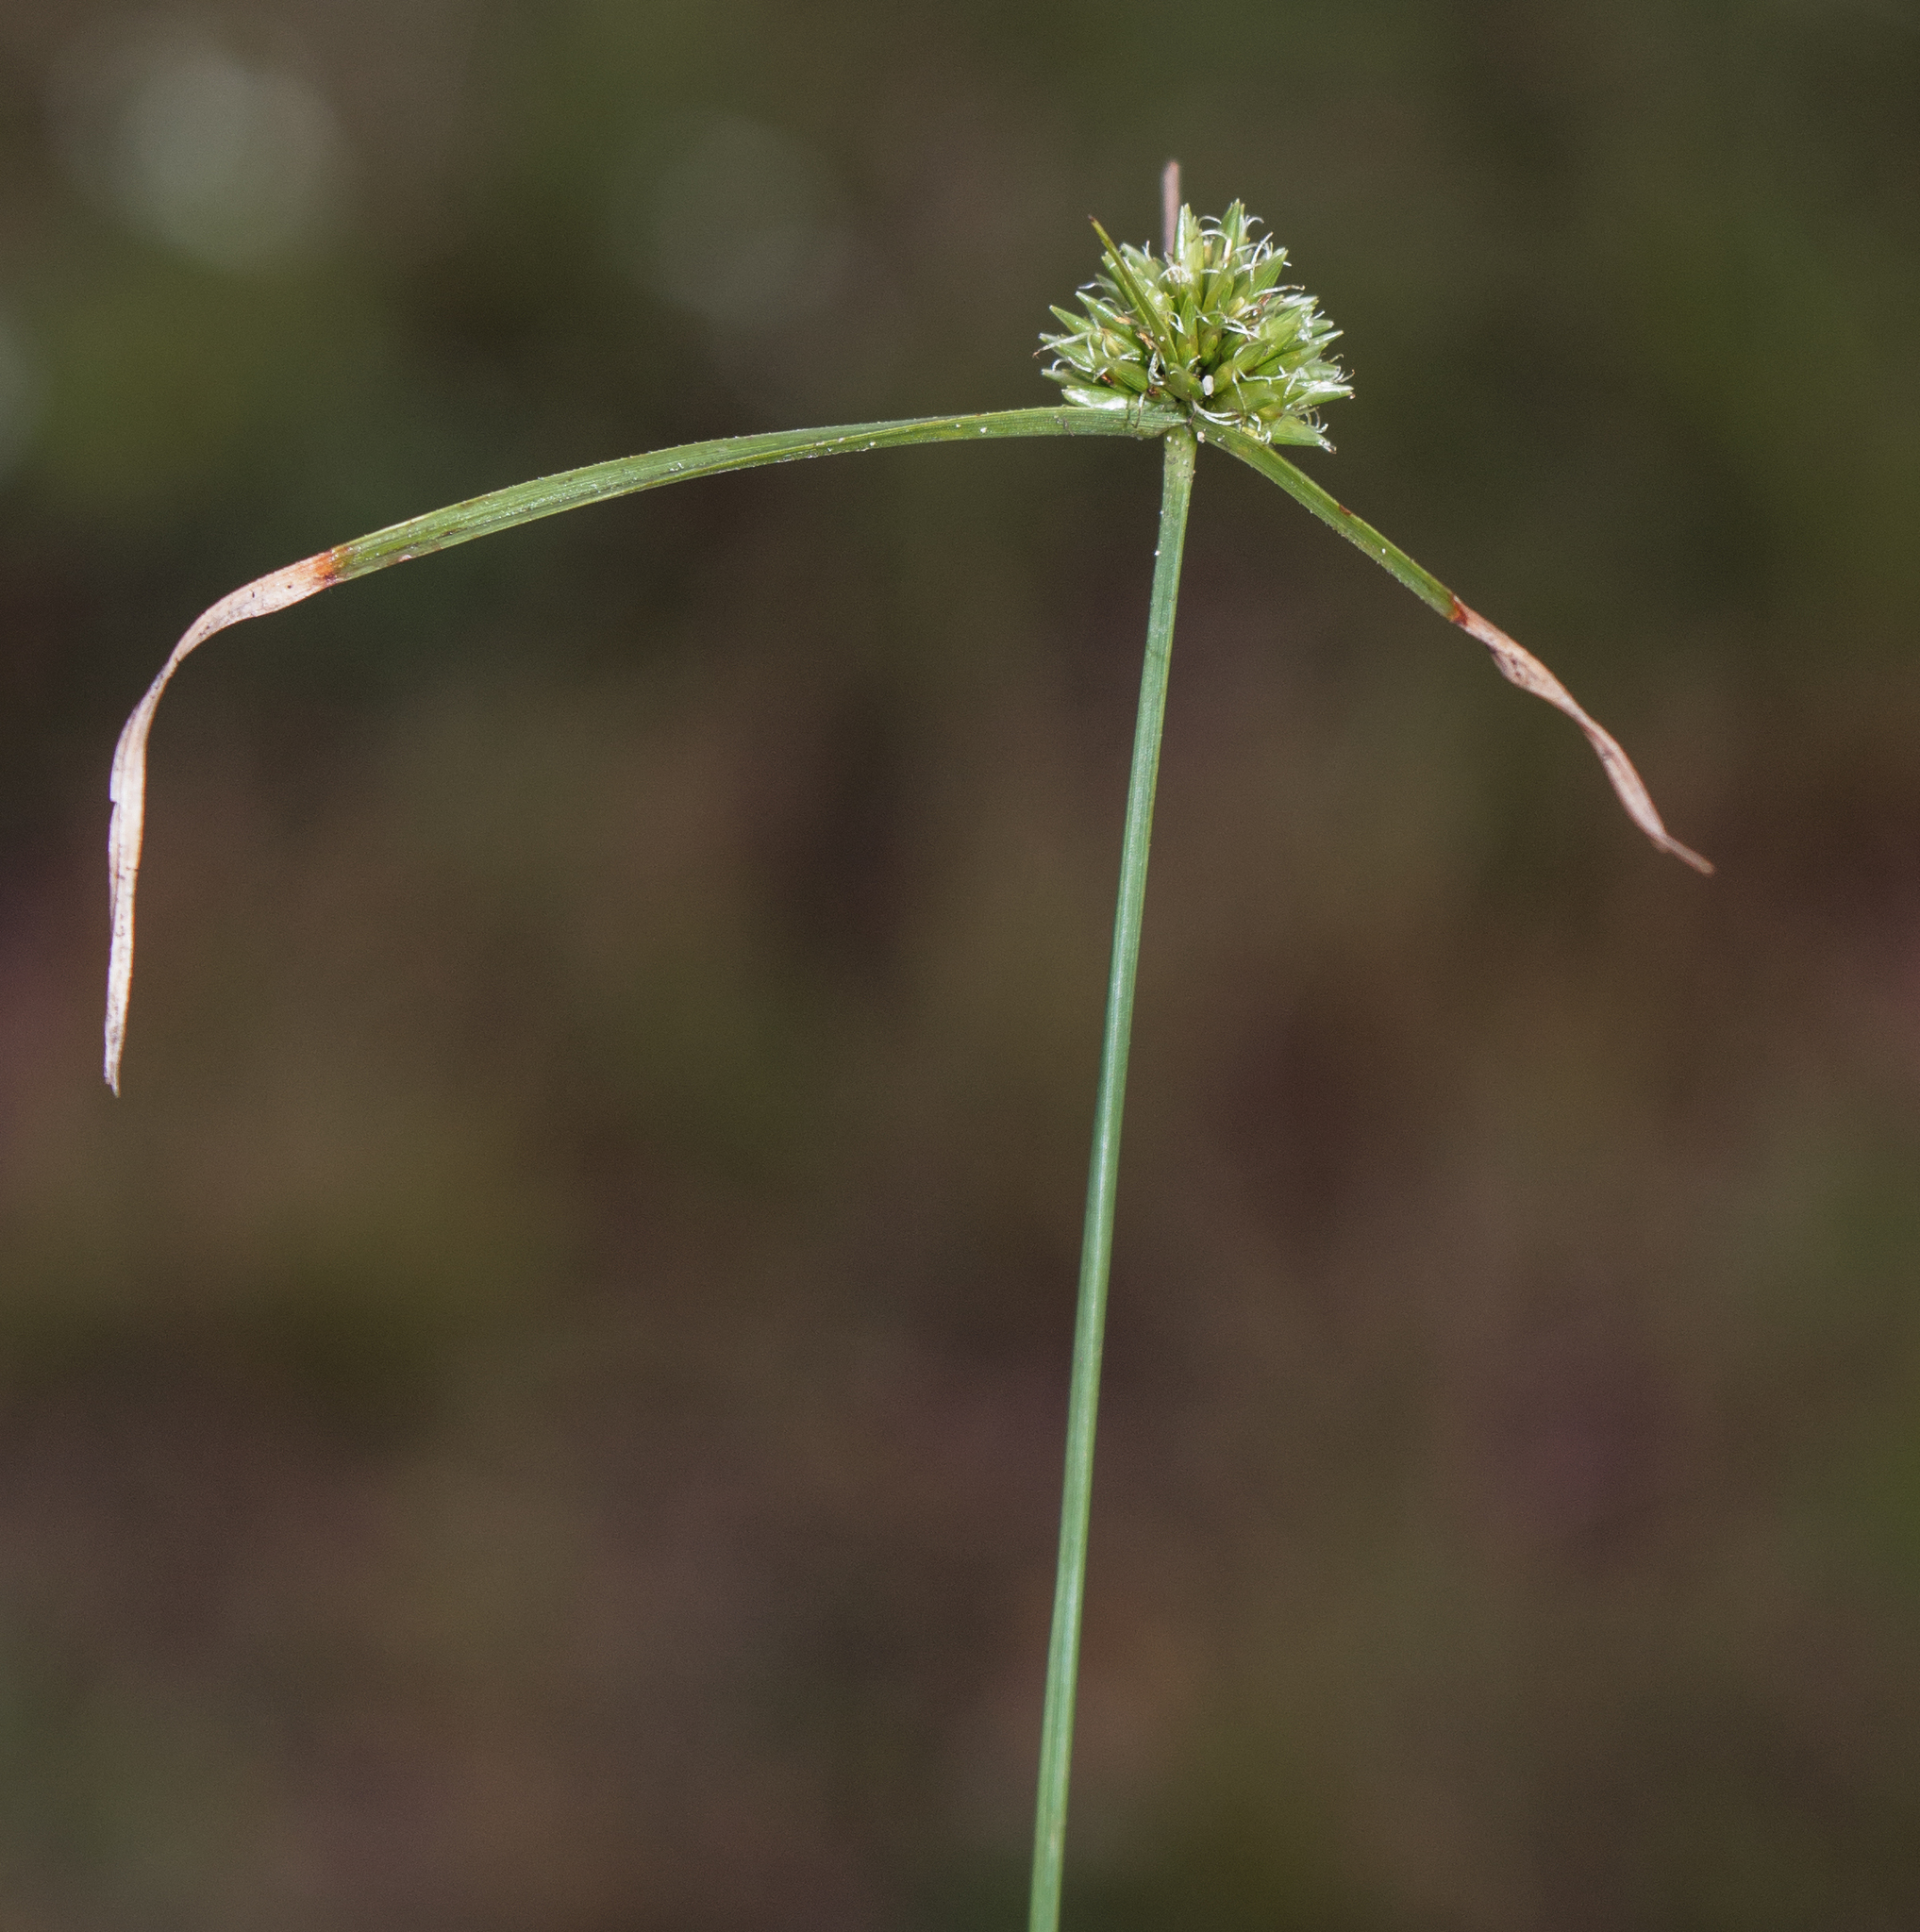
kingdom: Plantae
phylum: Tracheophyta
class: Liliopsida
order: Poales
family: Cyperaceae
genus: Cyperus
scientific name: Cyperus lupulinus
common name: Great plains flatsedge
